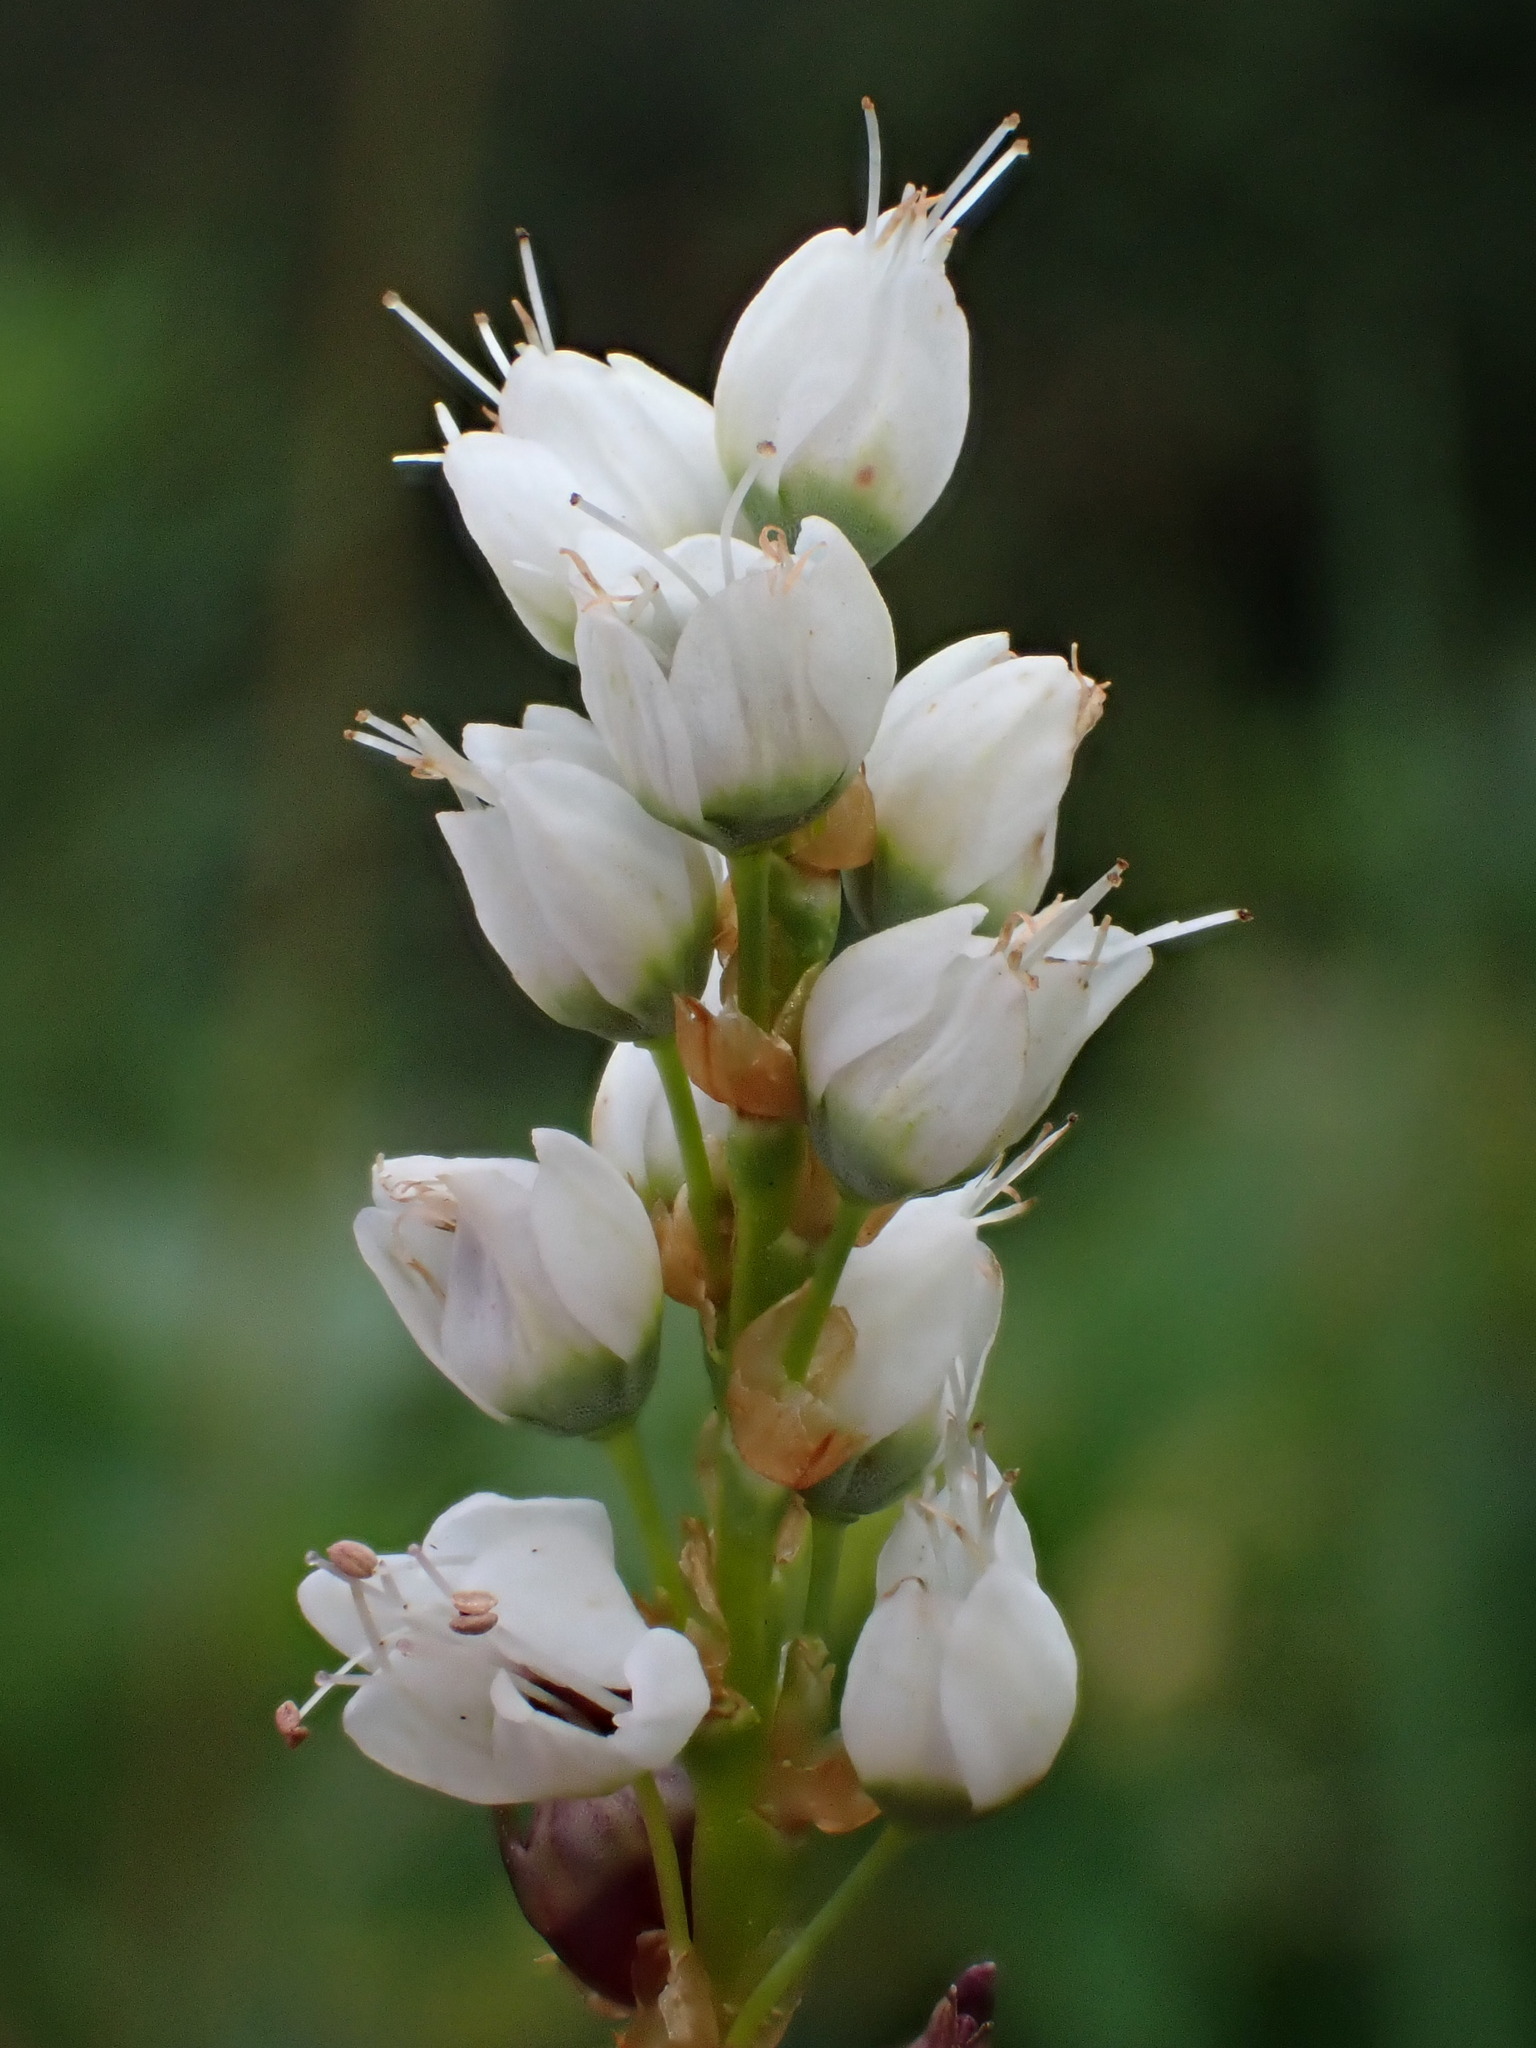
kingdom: Plantae
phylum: Tracheophyta
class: Magnoliopsida
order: Caryophyllales
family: Polygonaceae
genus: Bistorta
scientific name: Bistorta vivipara
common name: Alpine bistort
